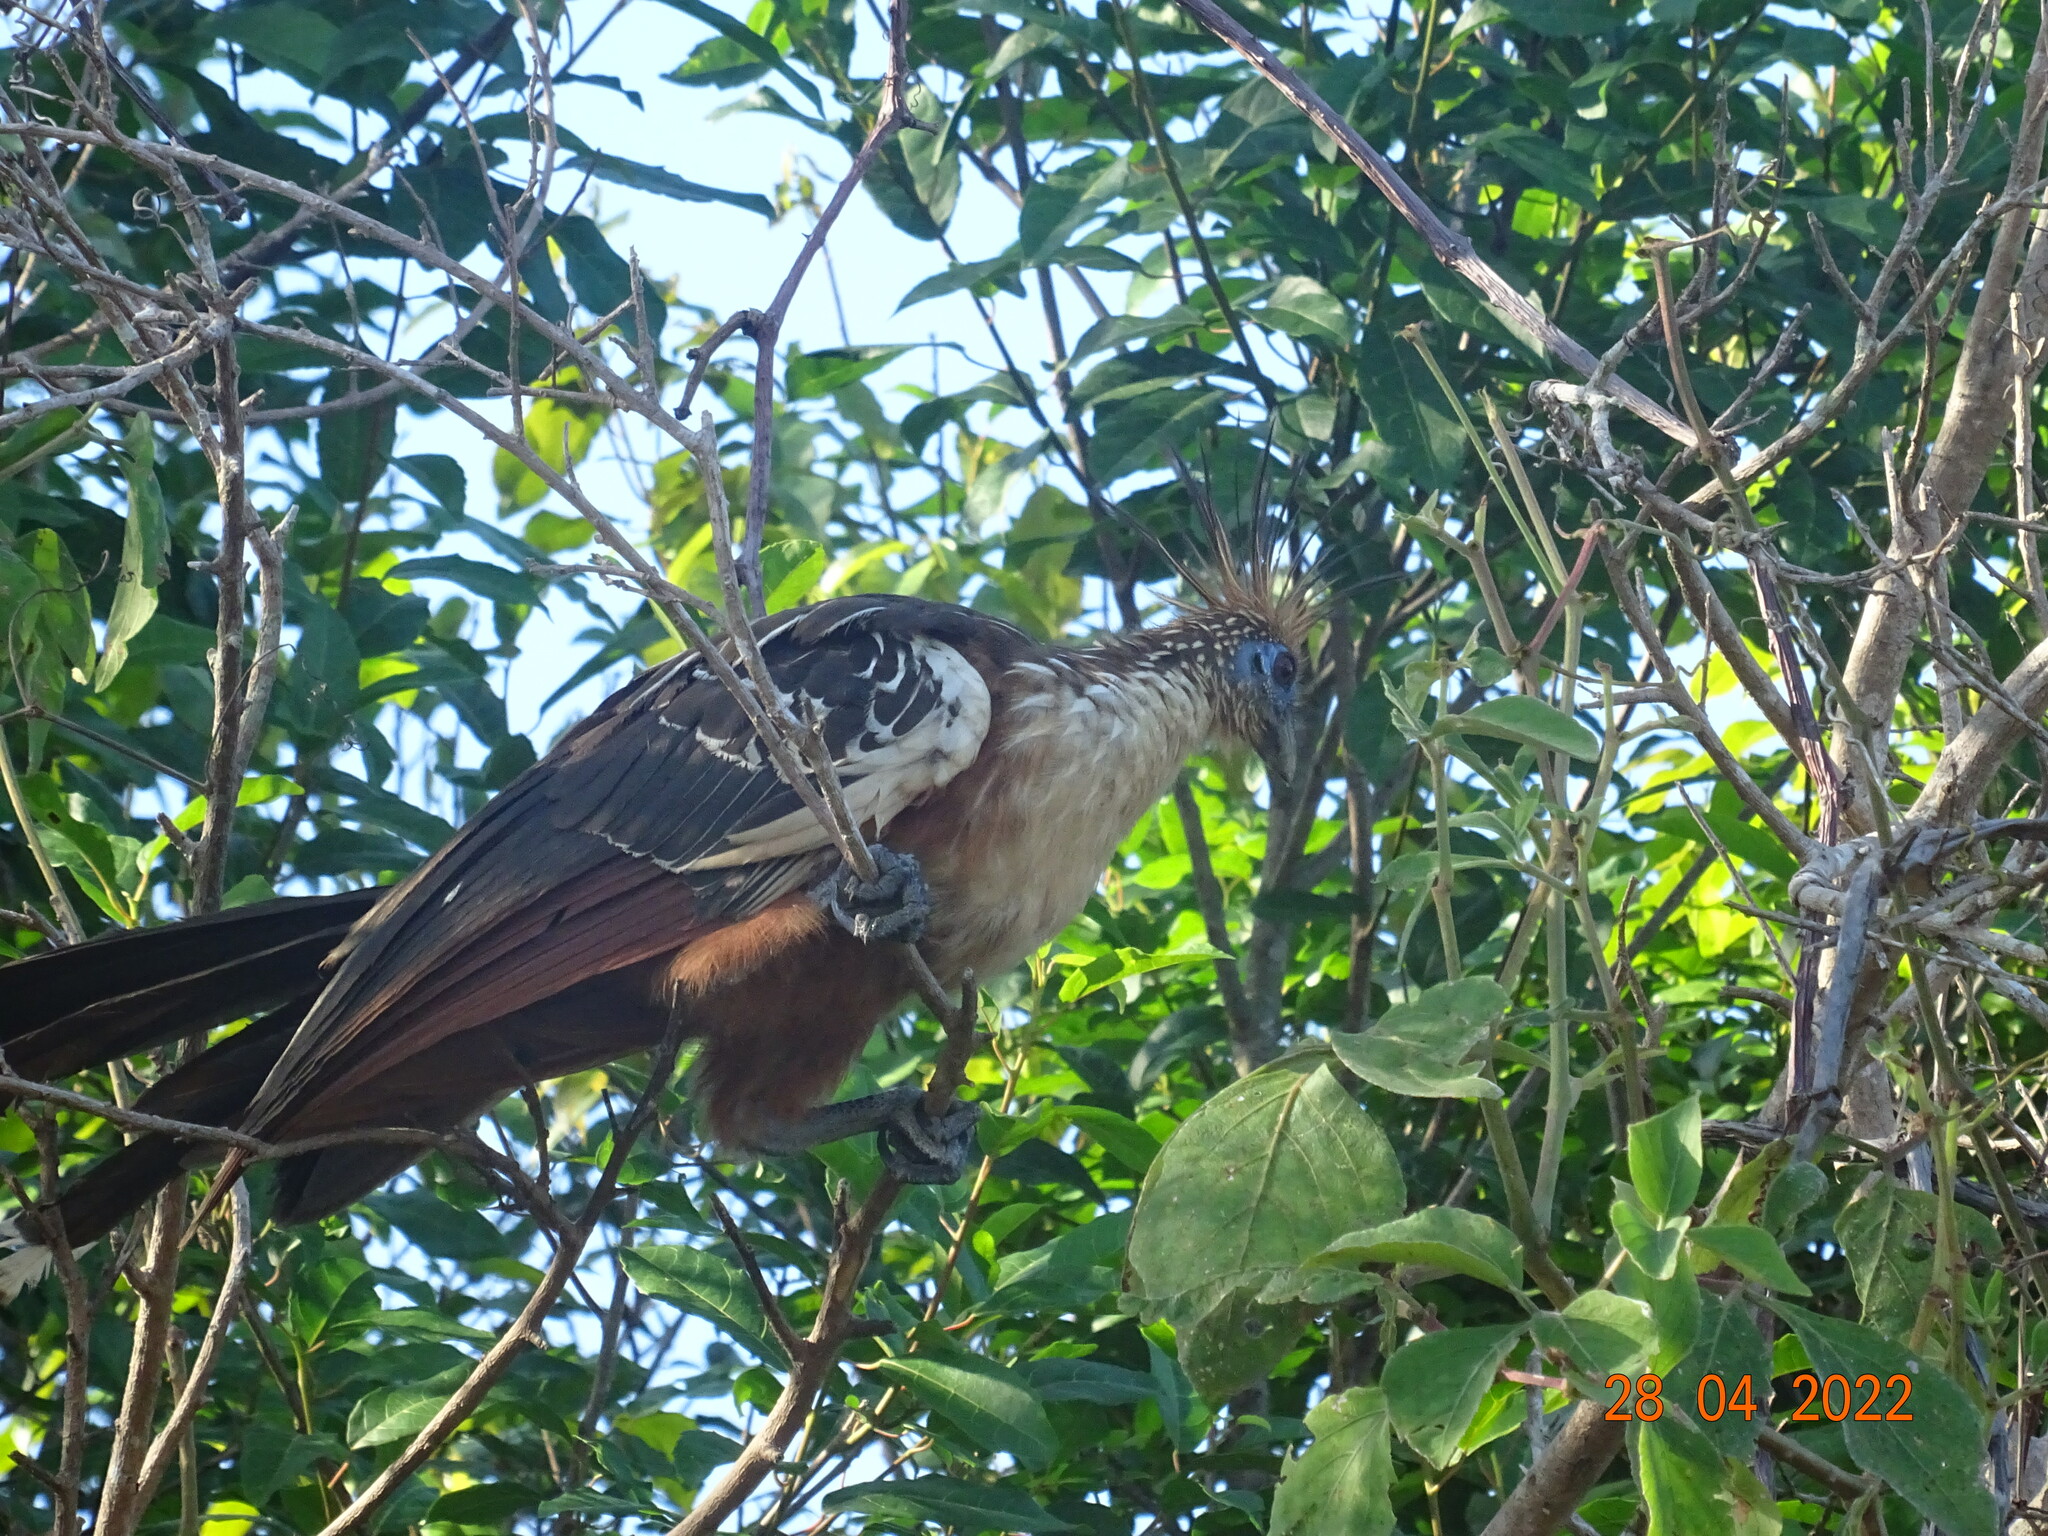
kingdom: Animalia
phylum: Chordata
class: Aves
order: Opisthocomiformes
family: Opisthocomidae
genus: Opisthocomus
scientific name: Opisthocomus hoazin
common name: Hoatzin
